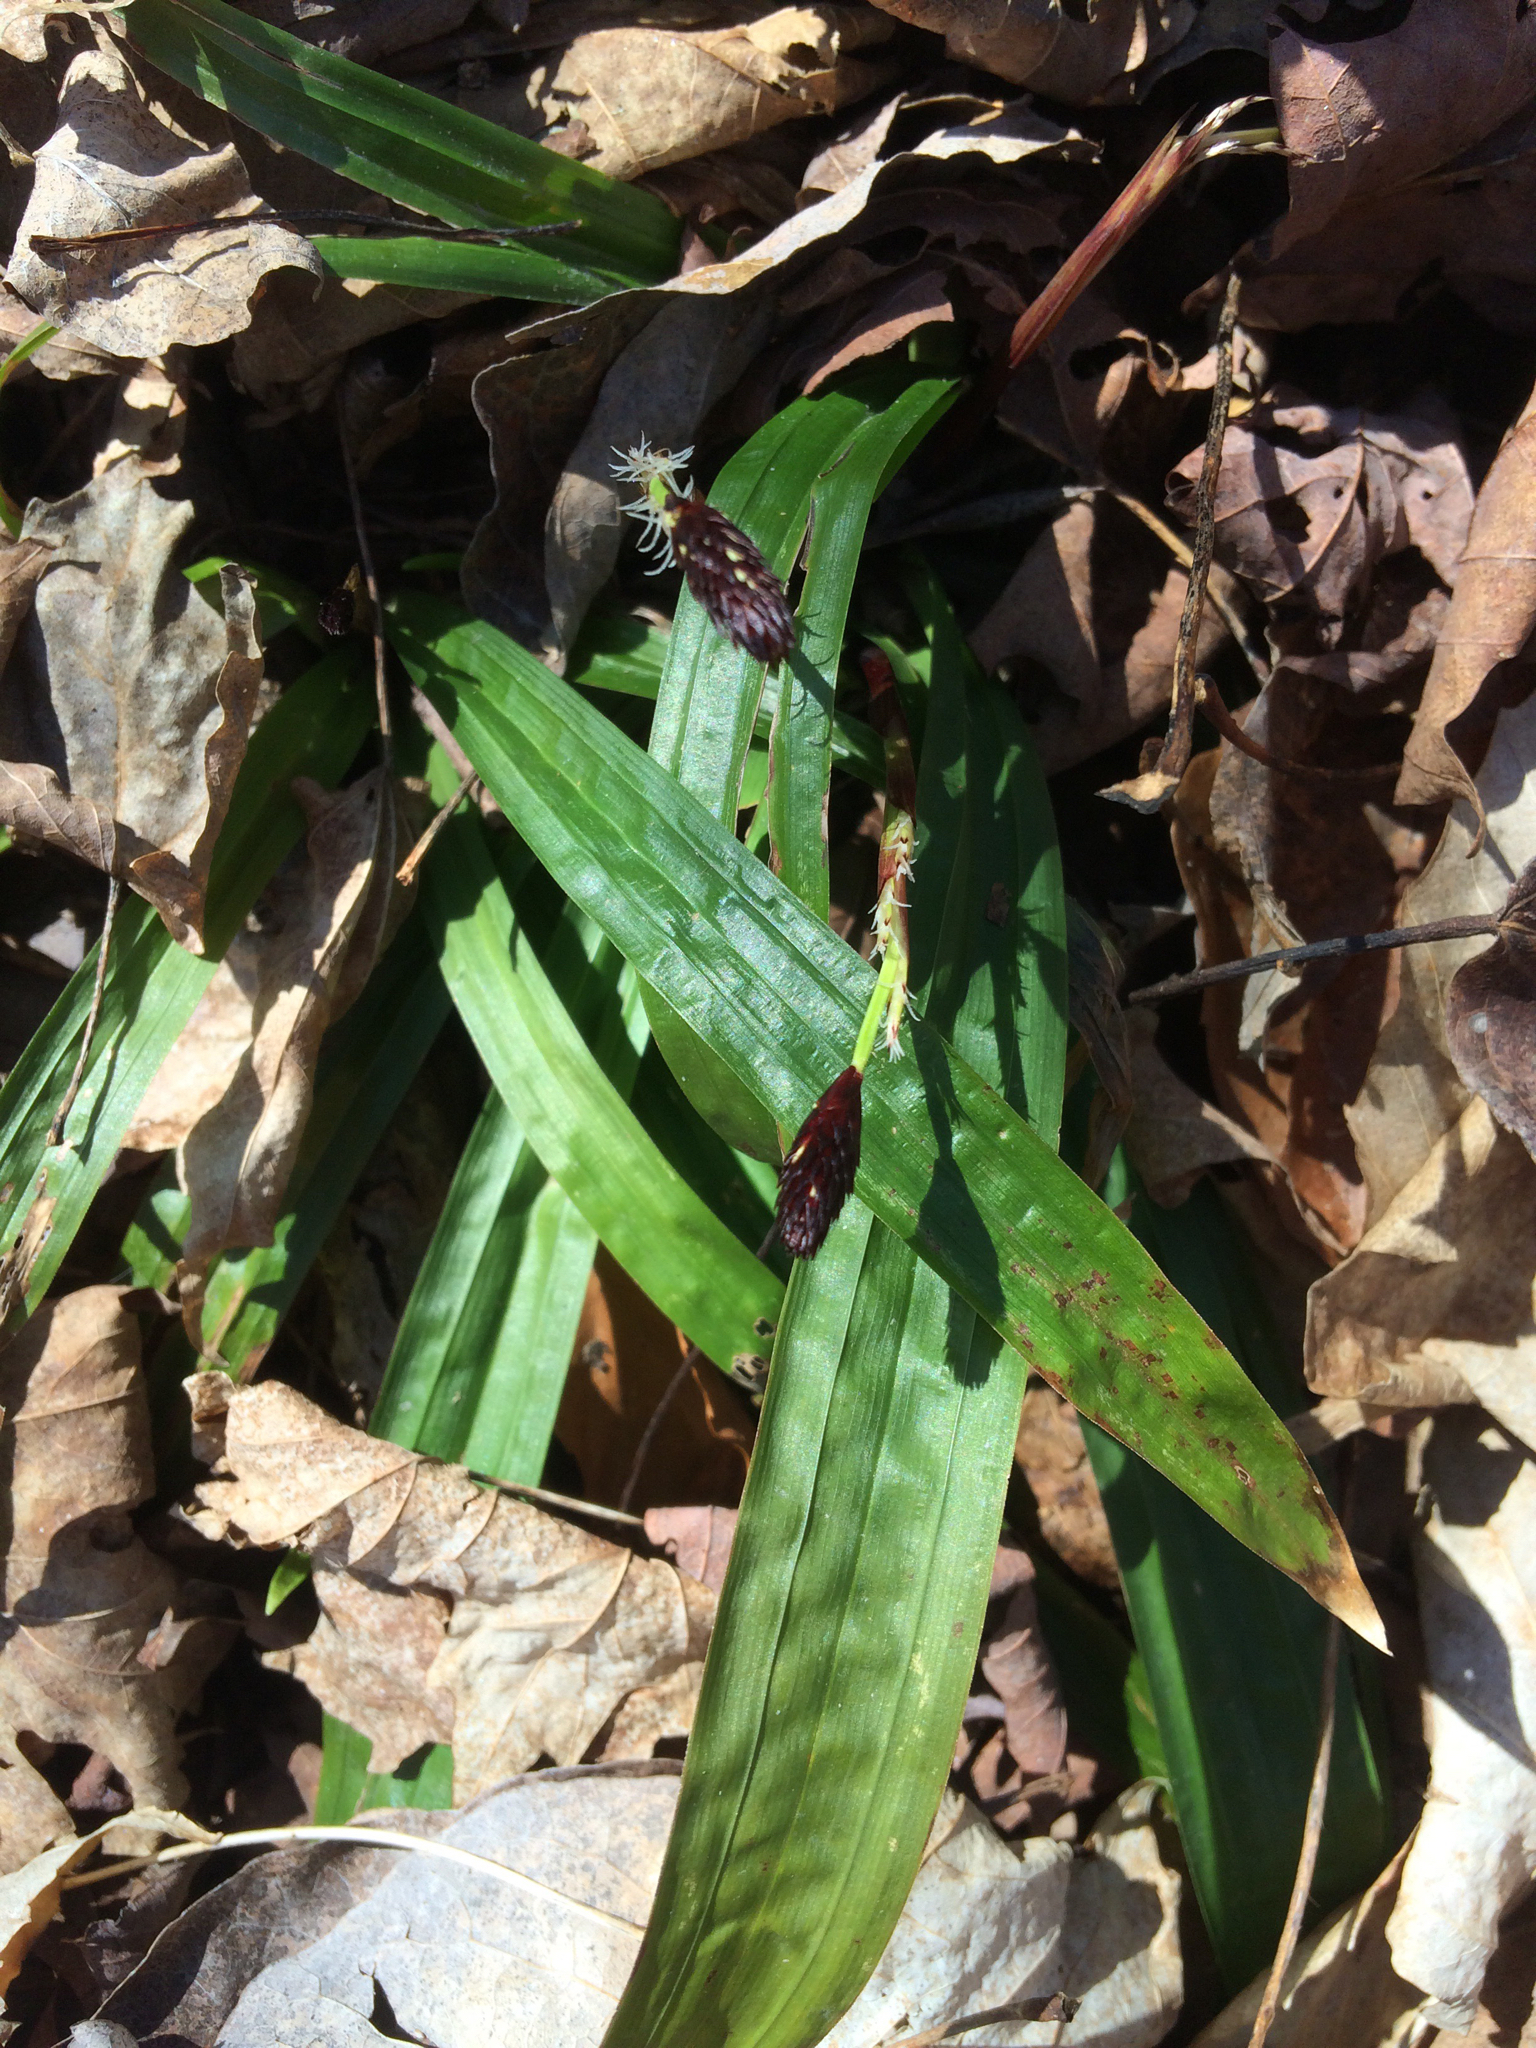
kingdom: Plantae
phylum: Tracheophyta
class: Liliopsida
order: Poales
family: Cyperaceae
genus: Carex
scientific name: Carex plantaginea
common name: Plantain-leaved sedge
